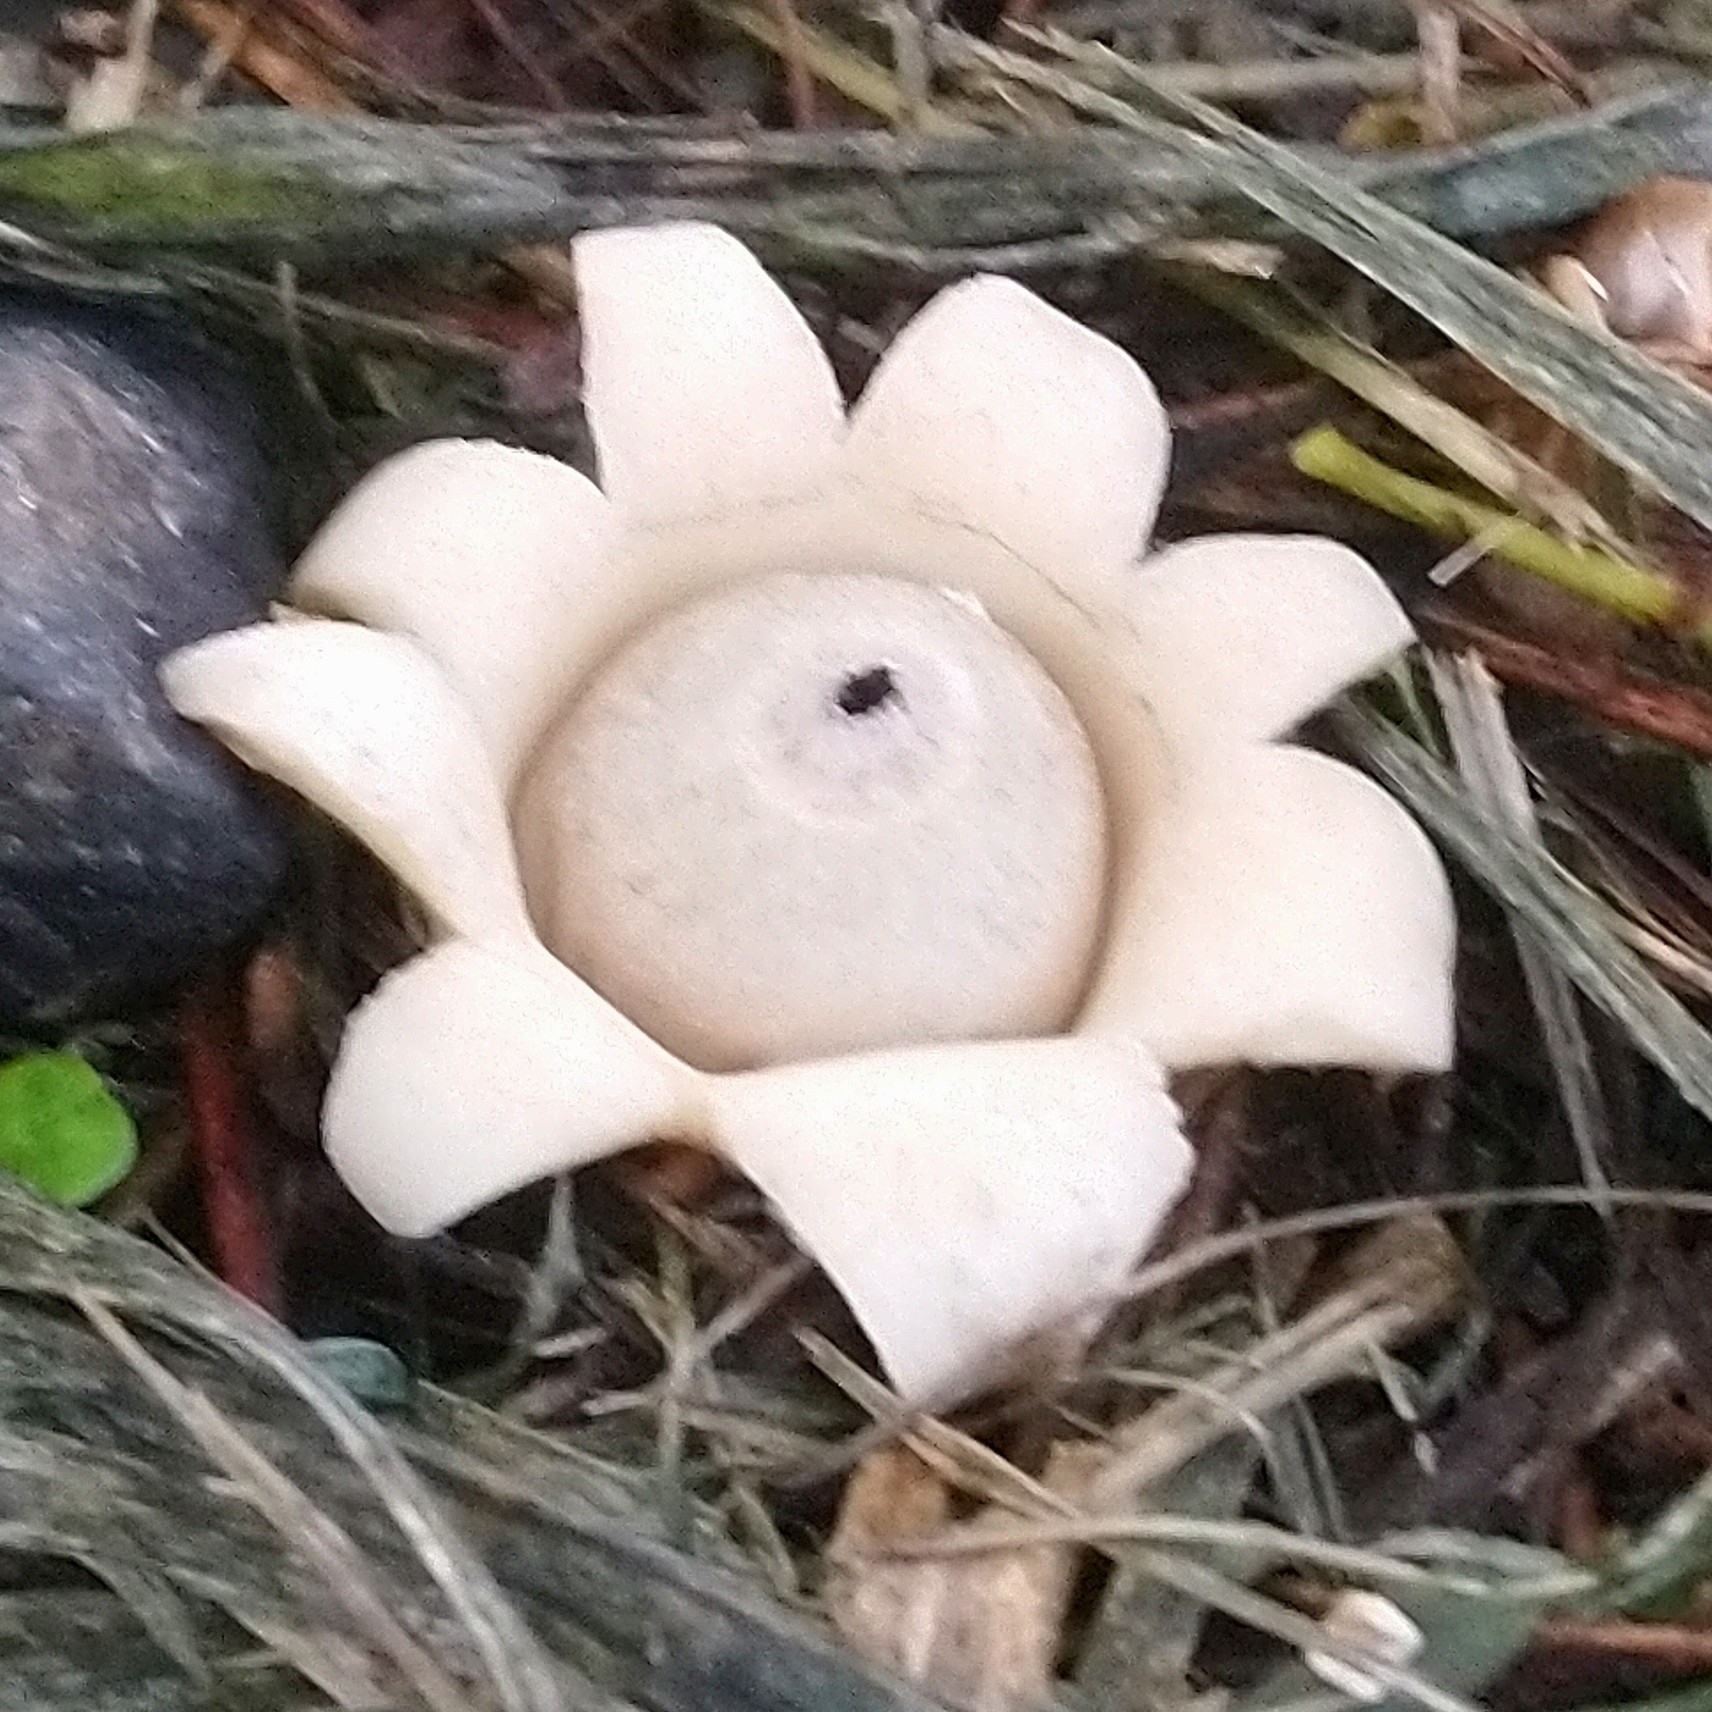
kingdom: Fungi
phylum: Basidiomycota
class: Agaricomycetes
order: Geastrales
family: Geastraceae
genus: Geastrum
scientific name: Geastrum saccatum
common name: Rounded earthstar
